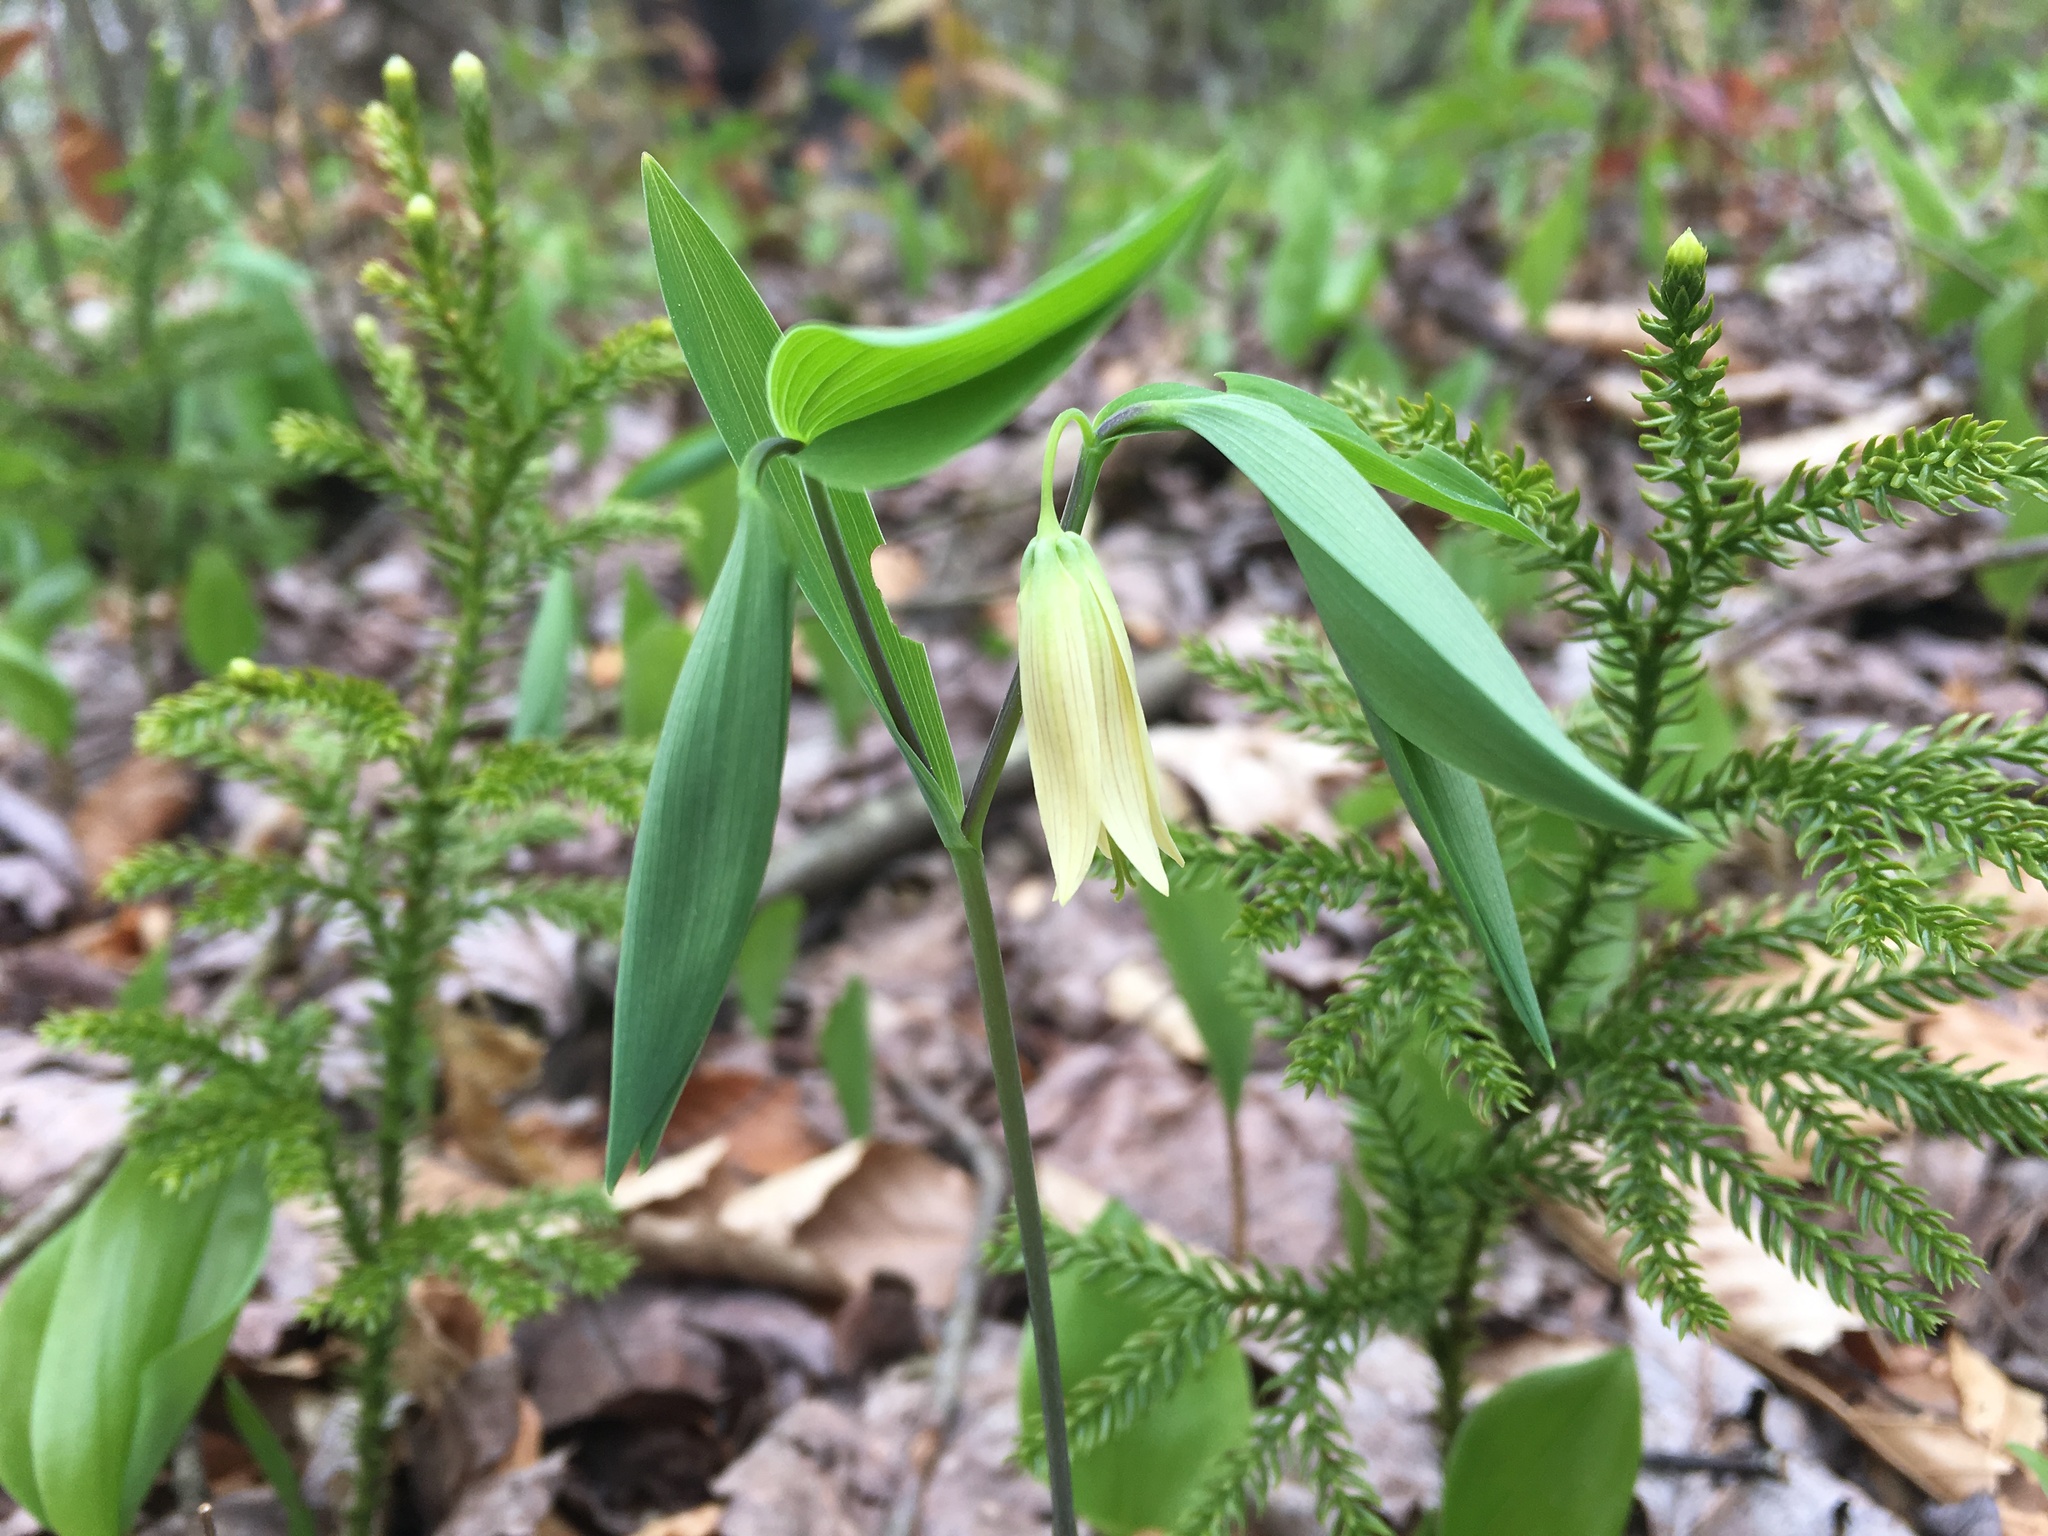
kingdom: Plantae
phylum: Tracheophyta
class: Liliopsida
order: Liliales
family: Colchicaceae
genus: Uvularia
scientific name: Uvularia sessilifolia
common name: Straw-lily
